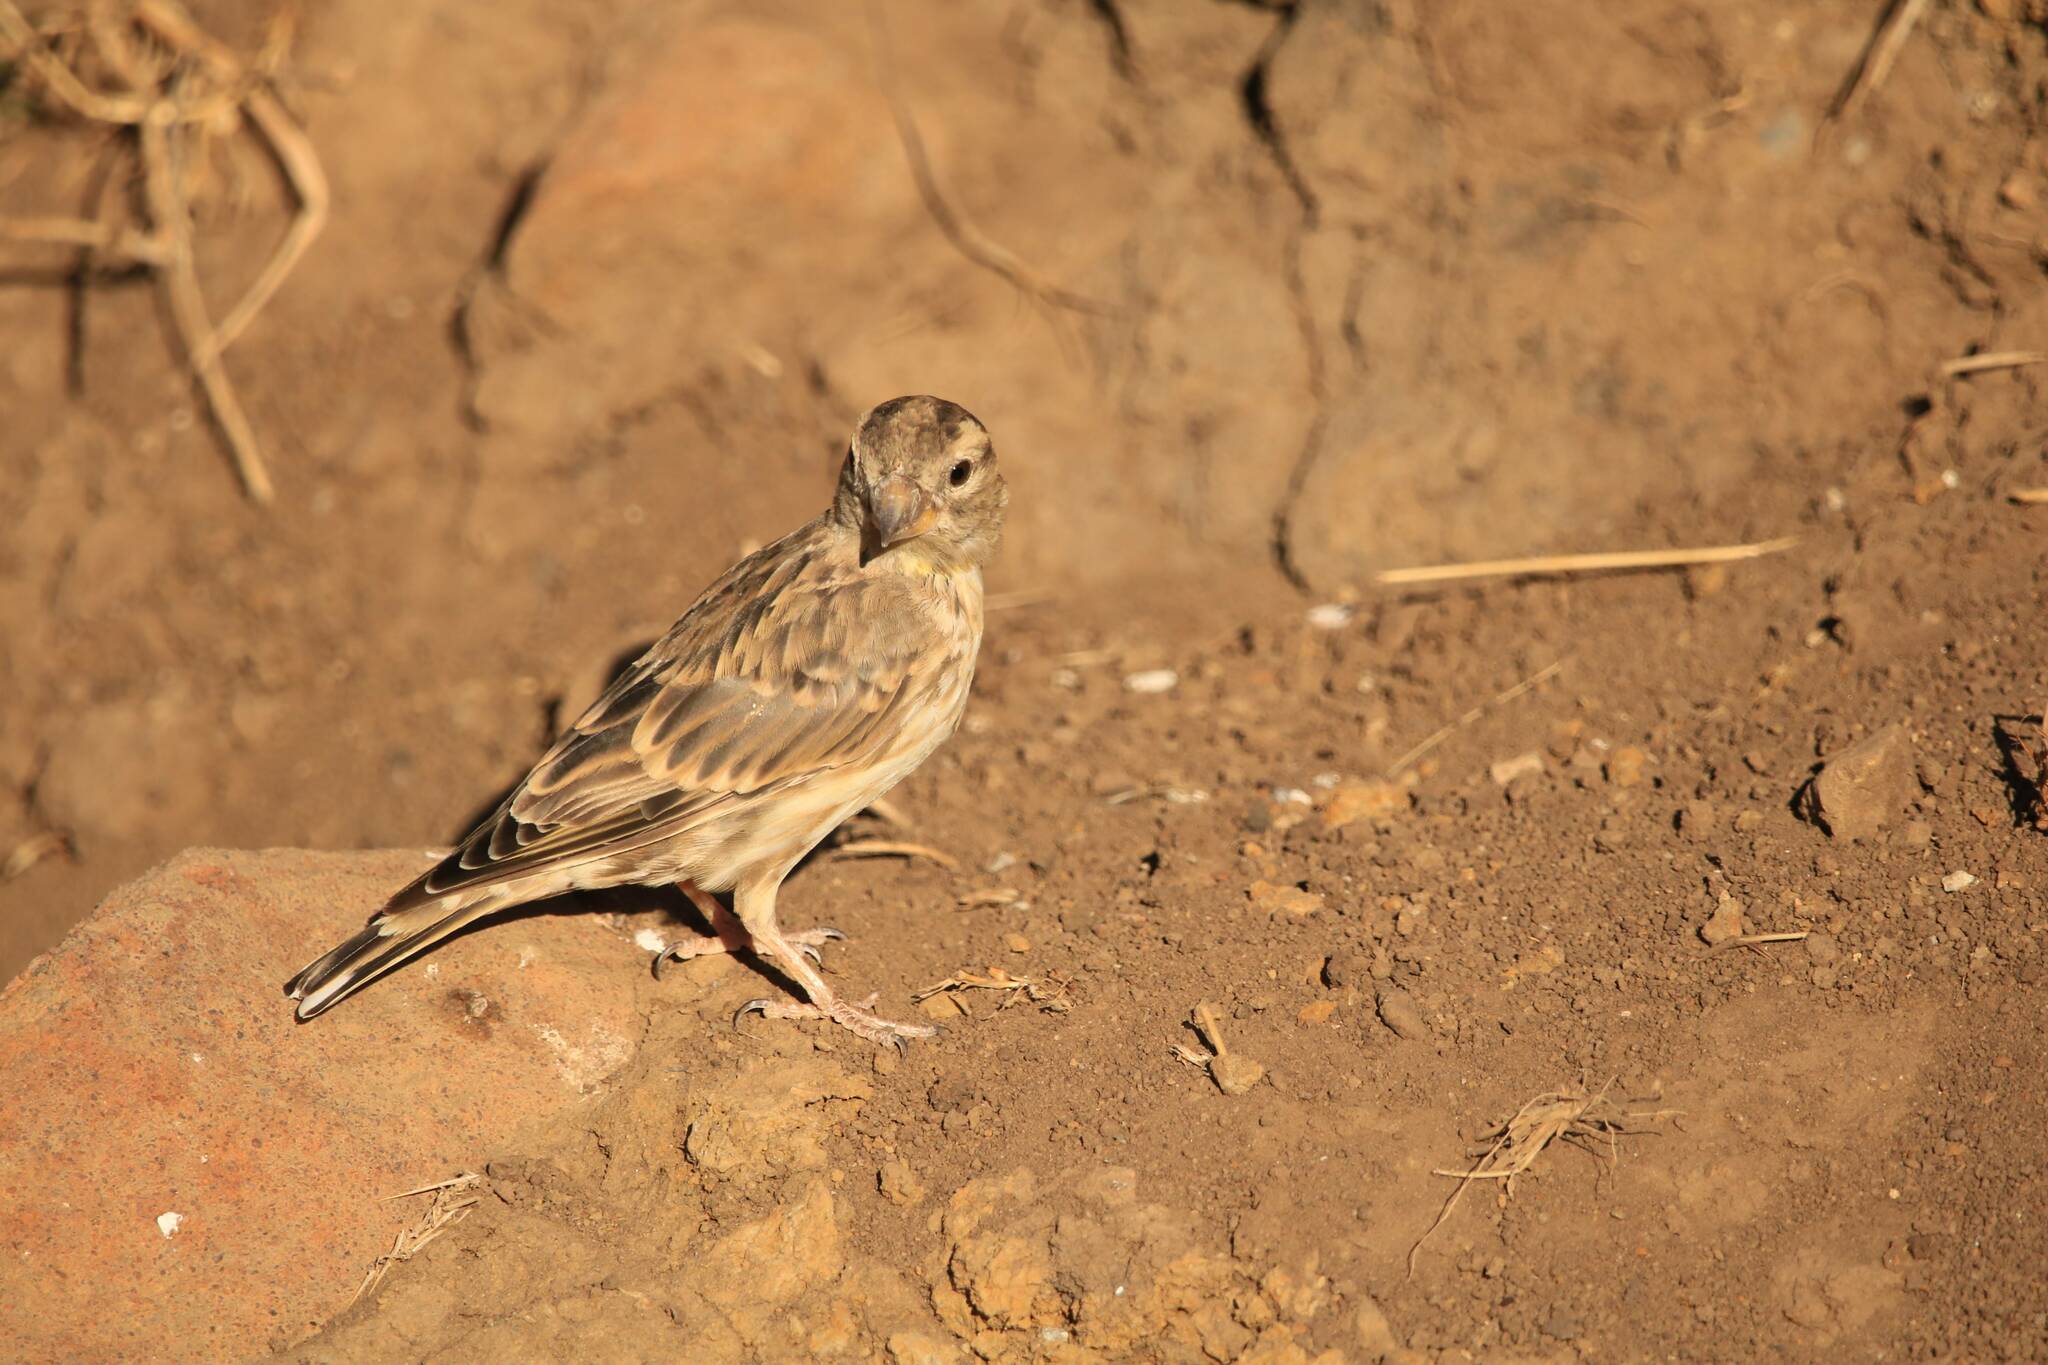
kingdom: Animalia
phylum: Chordata
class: Aves
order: Passeriformes
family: Passeridae
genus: Petronia
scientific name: Petronia petronia
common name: Rock sparrow
